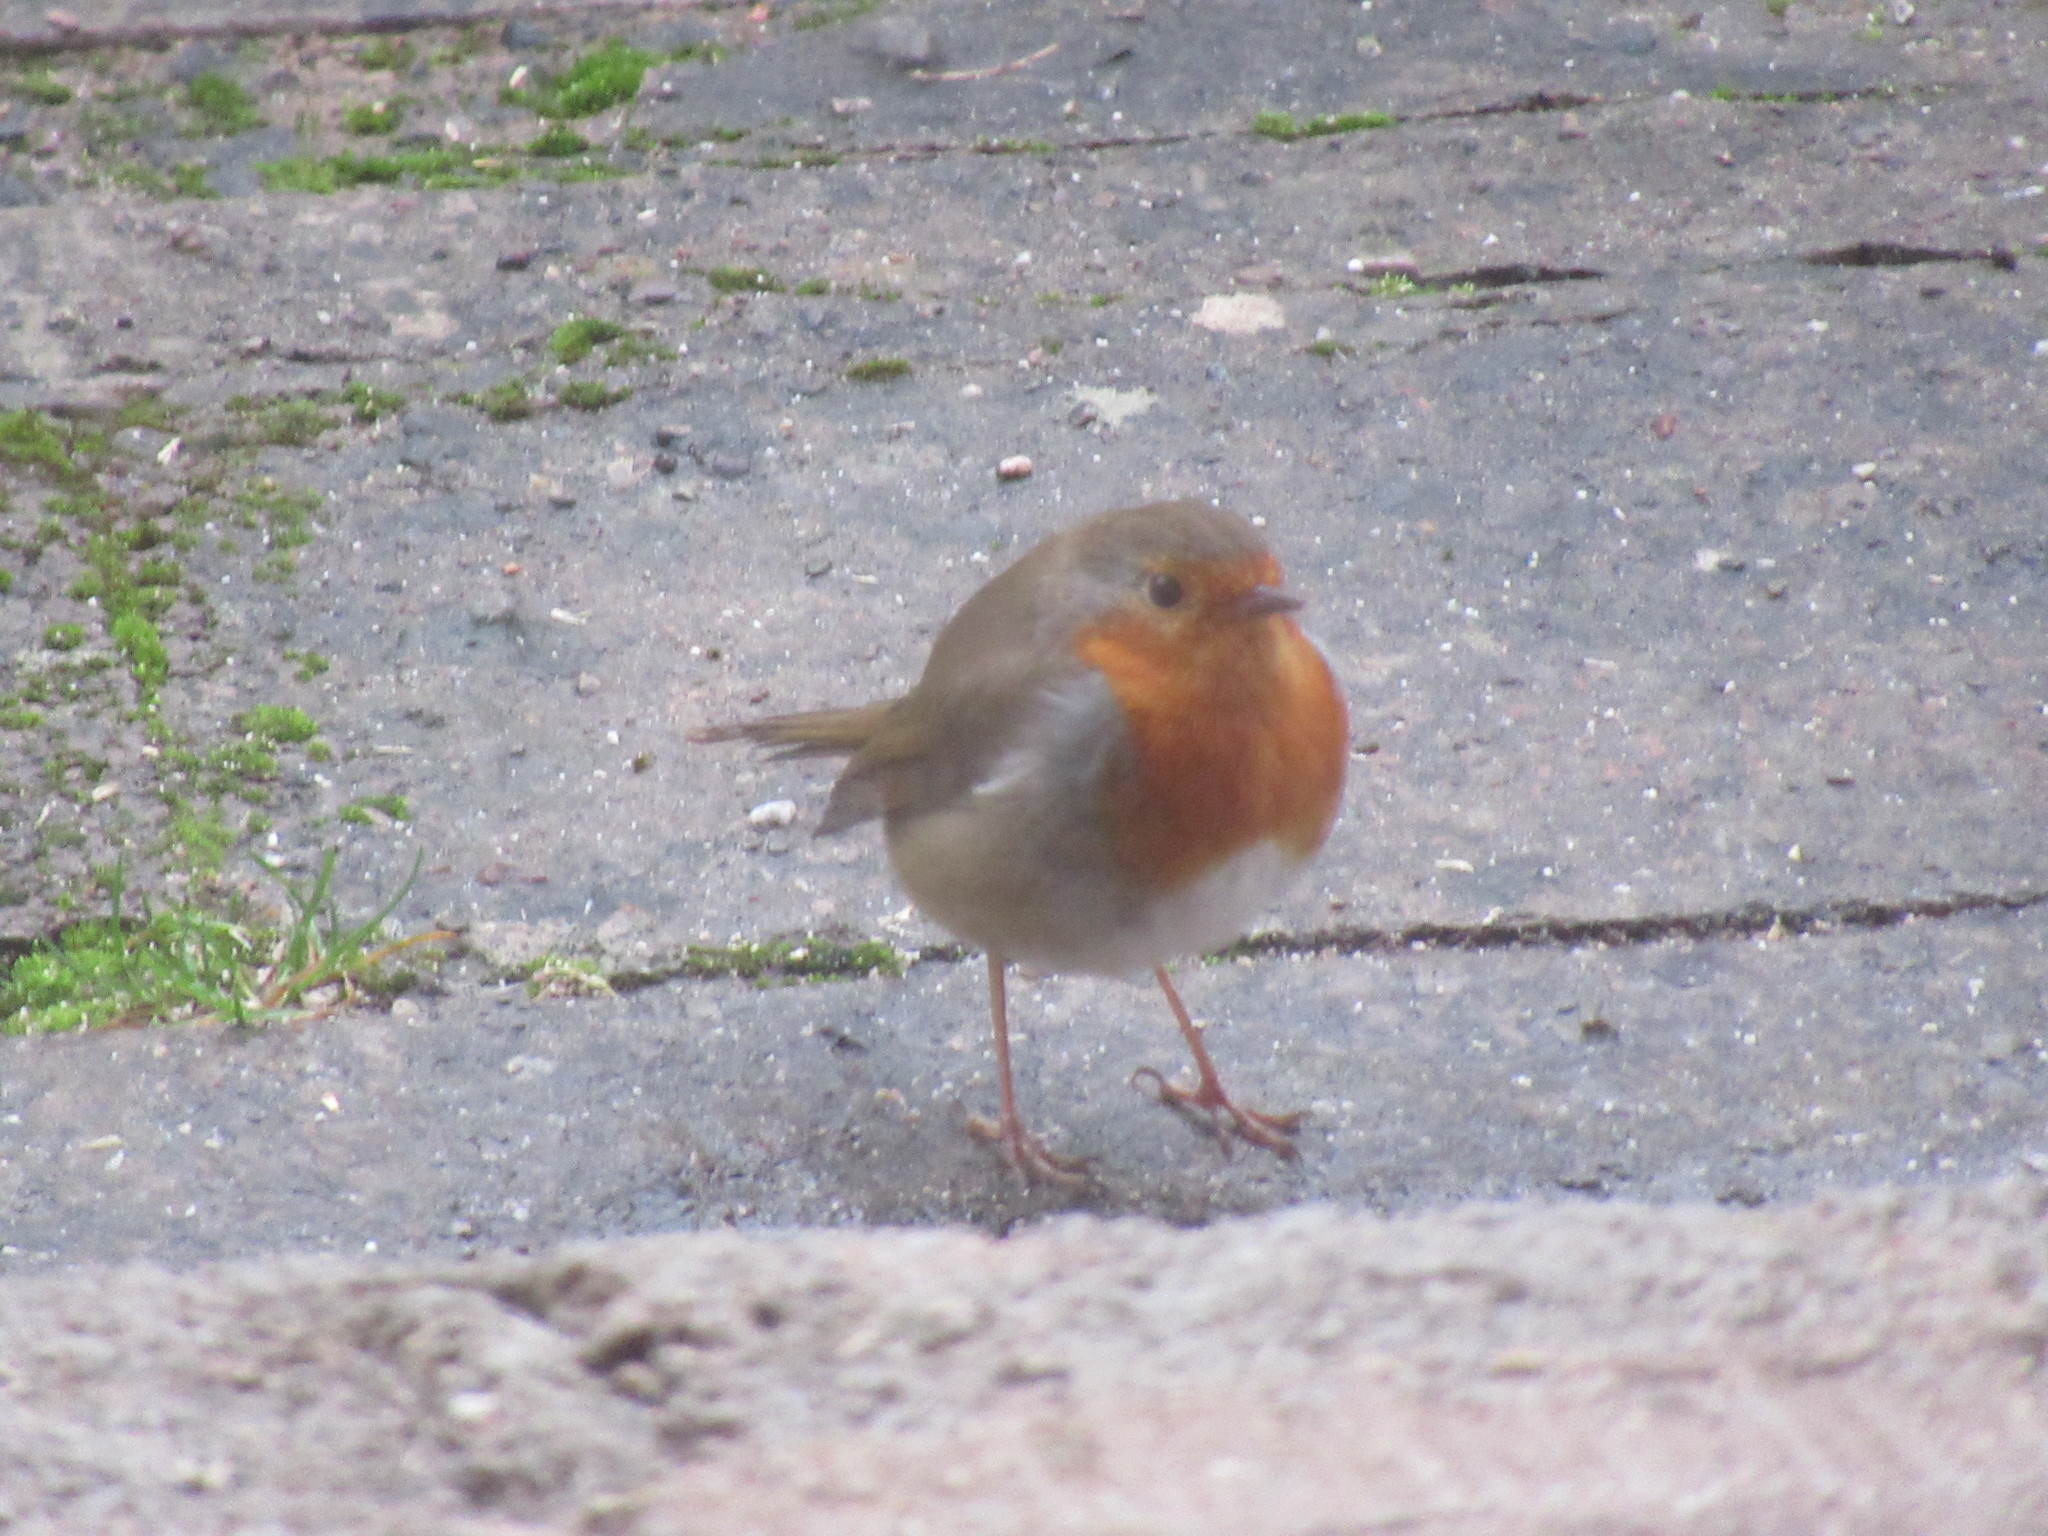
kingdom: Animalia
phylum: Chordata
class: Aves
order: Passeriformes
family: Muscicapidae
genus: Erithacus
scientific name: Erithacus rubecula
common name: European robin
